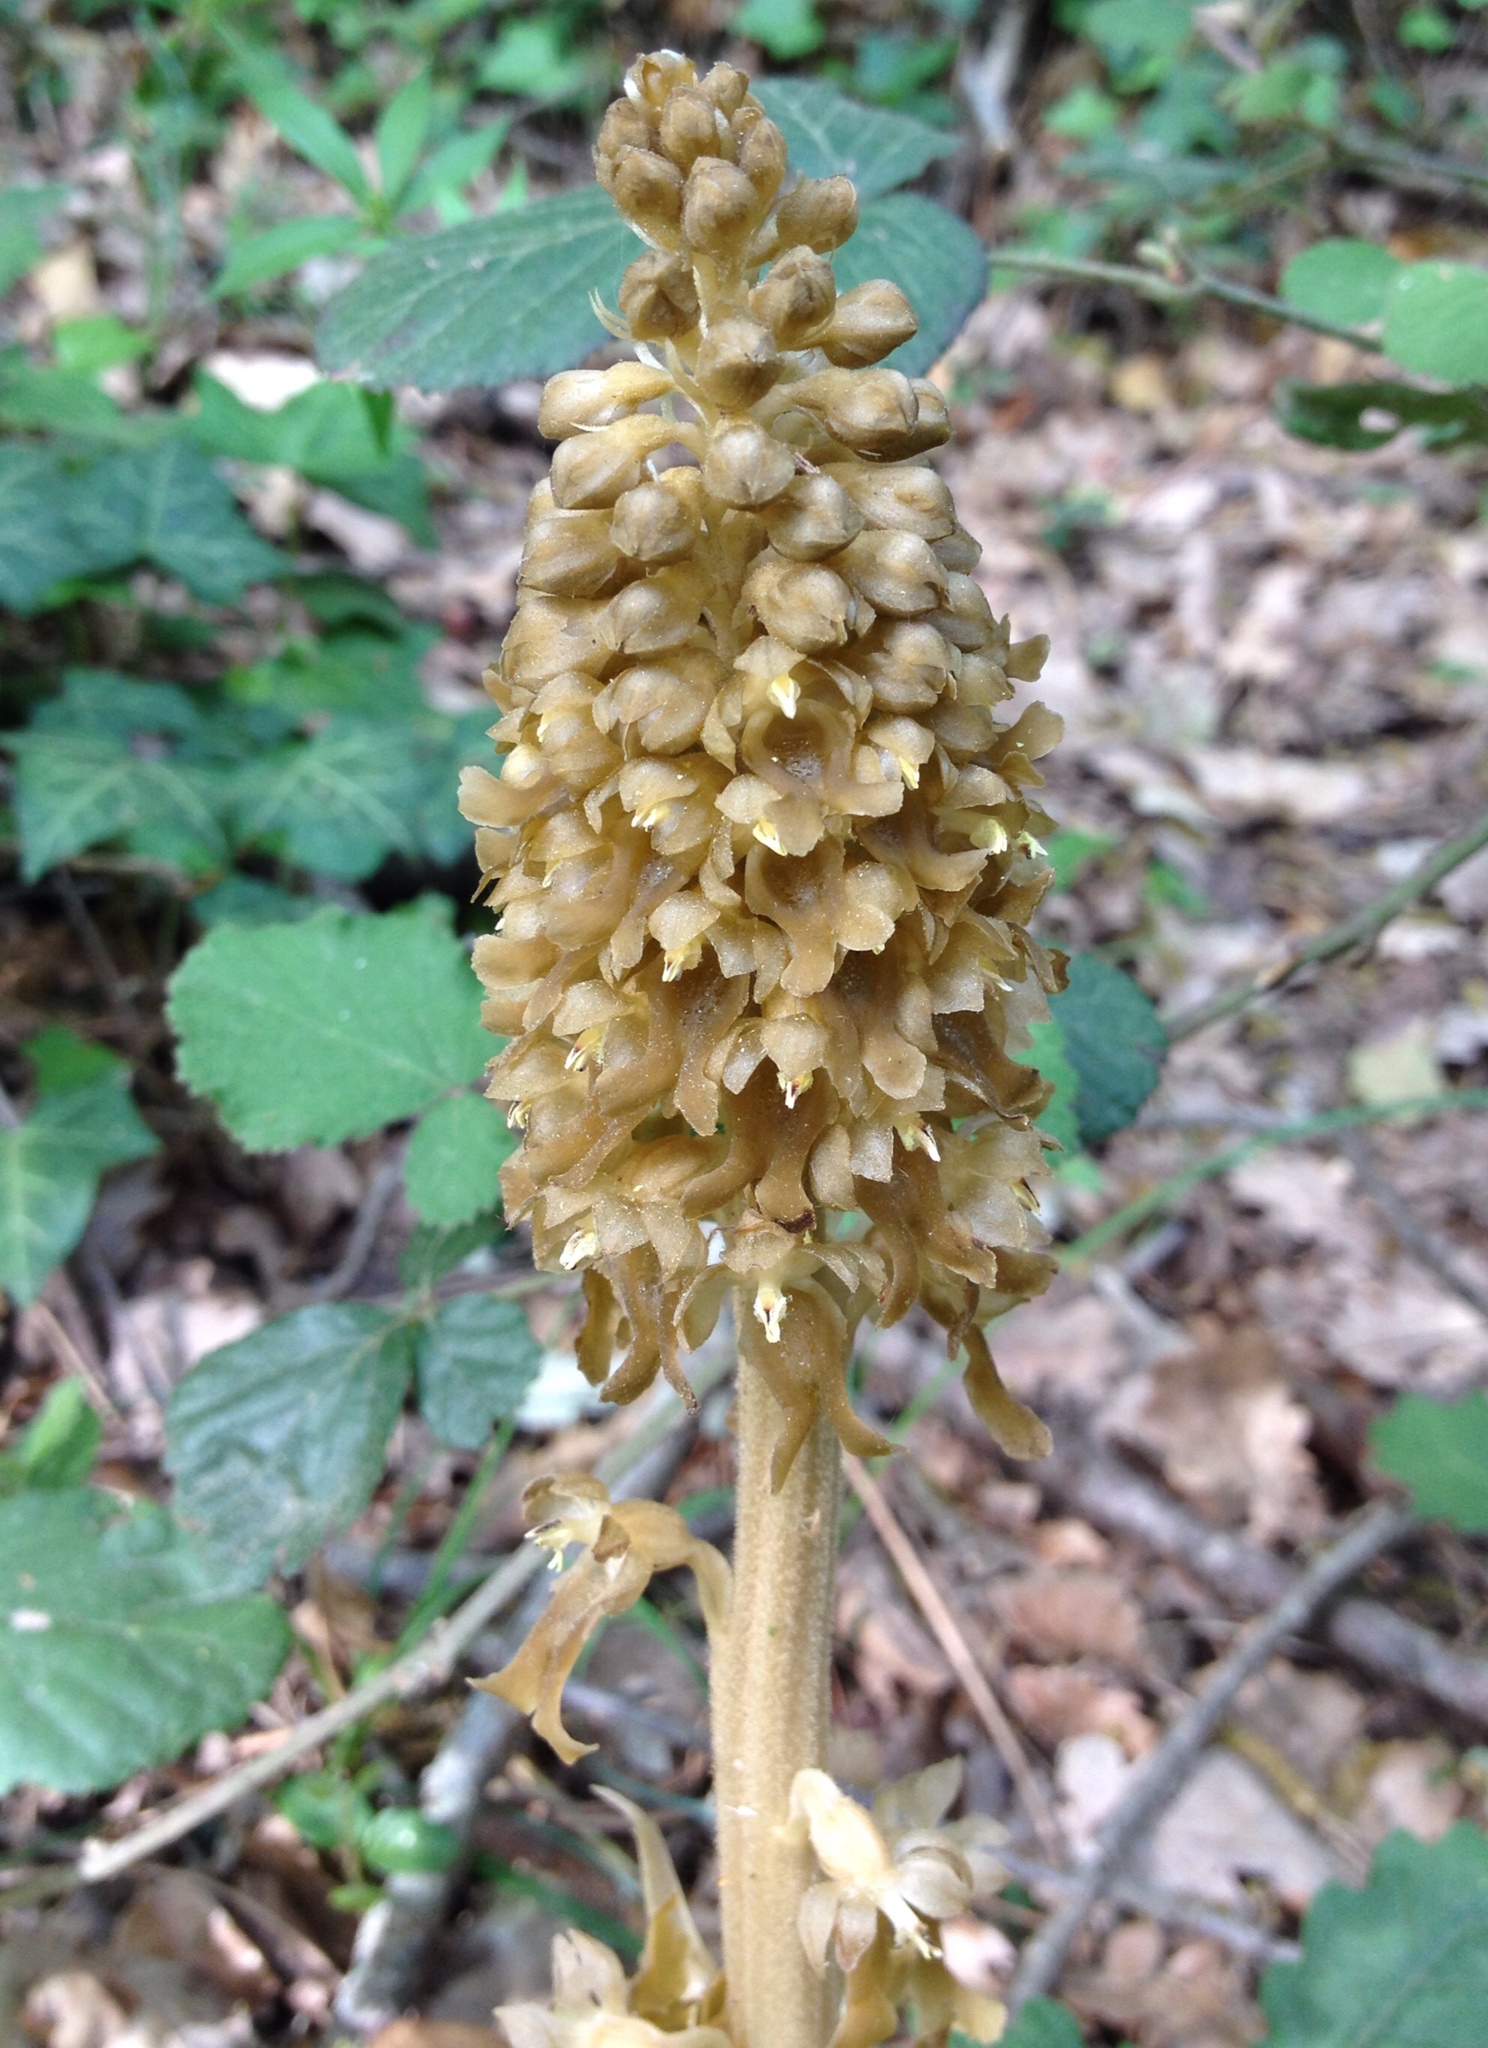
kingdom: Plantae
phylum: Tracheophyta
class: Liliopsida
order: Asparagales
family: Orchidaceae
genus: Neottia
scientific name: Neottia nidus-avis
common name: Bird's-nest orchid
